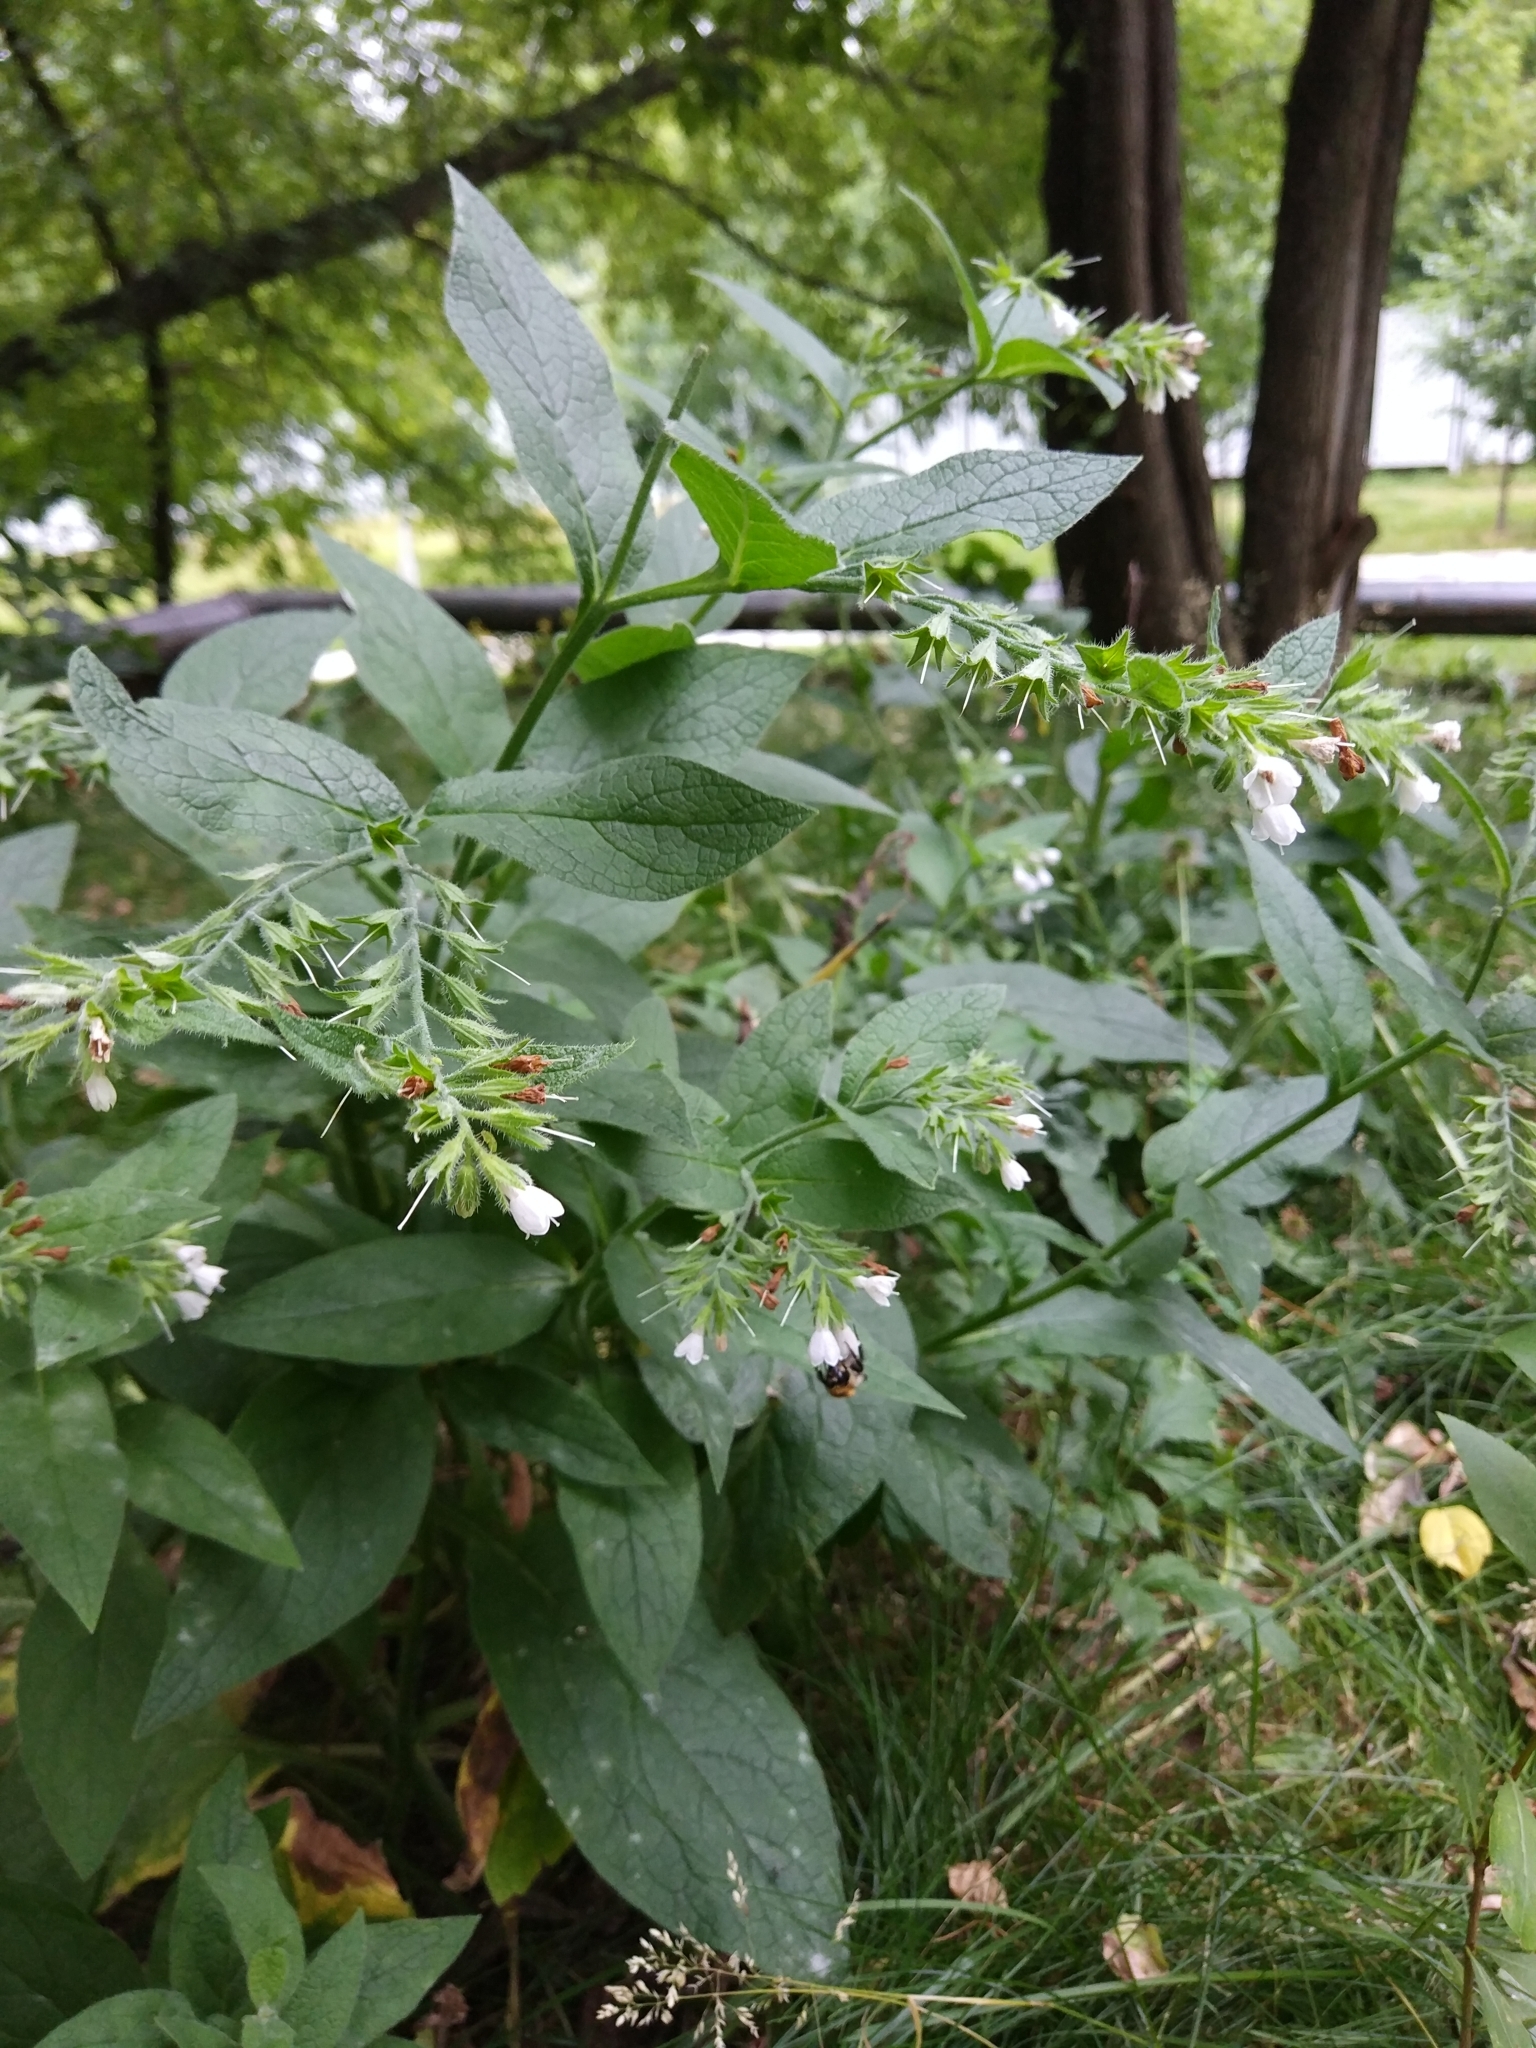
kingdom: Plantae
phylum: Tracheophyta
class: Magnoliopsida
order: Boraginales
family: Boraginaceae
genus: Symphytum
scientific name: Symphytum caucasicum
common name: Caucasian comfrey
